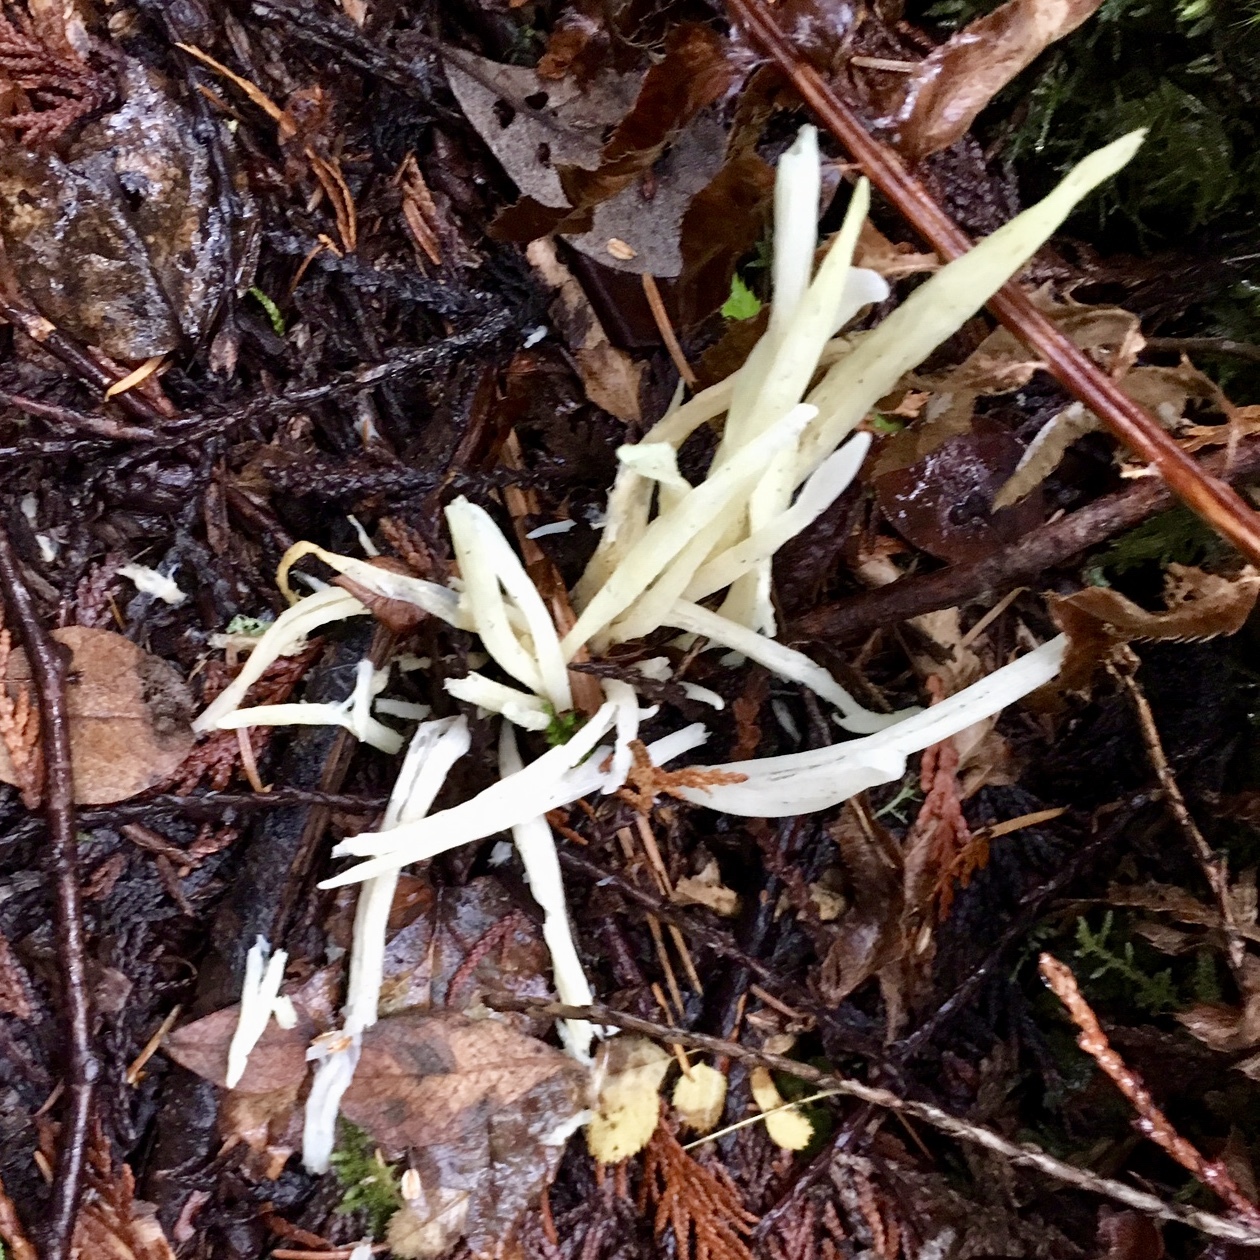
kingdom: Fungi
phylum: Basidiomycota
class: Agaricomycetes
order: Agaricales
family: Clavariaceae
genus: Clavaria
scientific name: Clavaria fragilis
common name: White spindles
